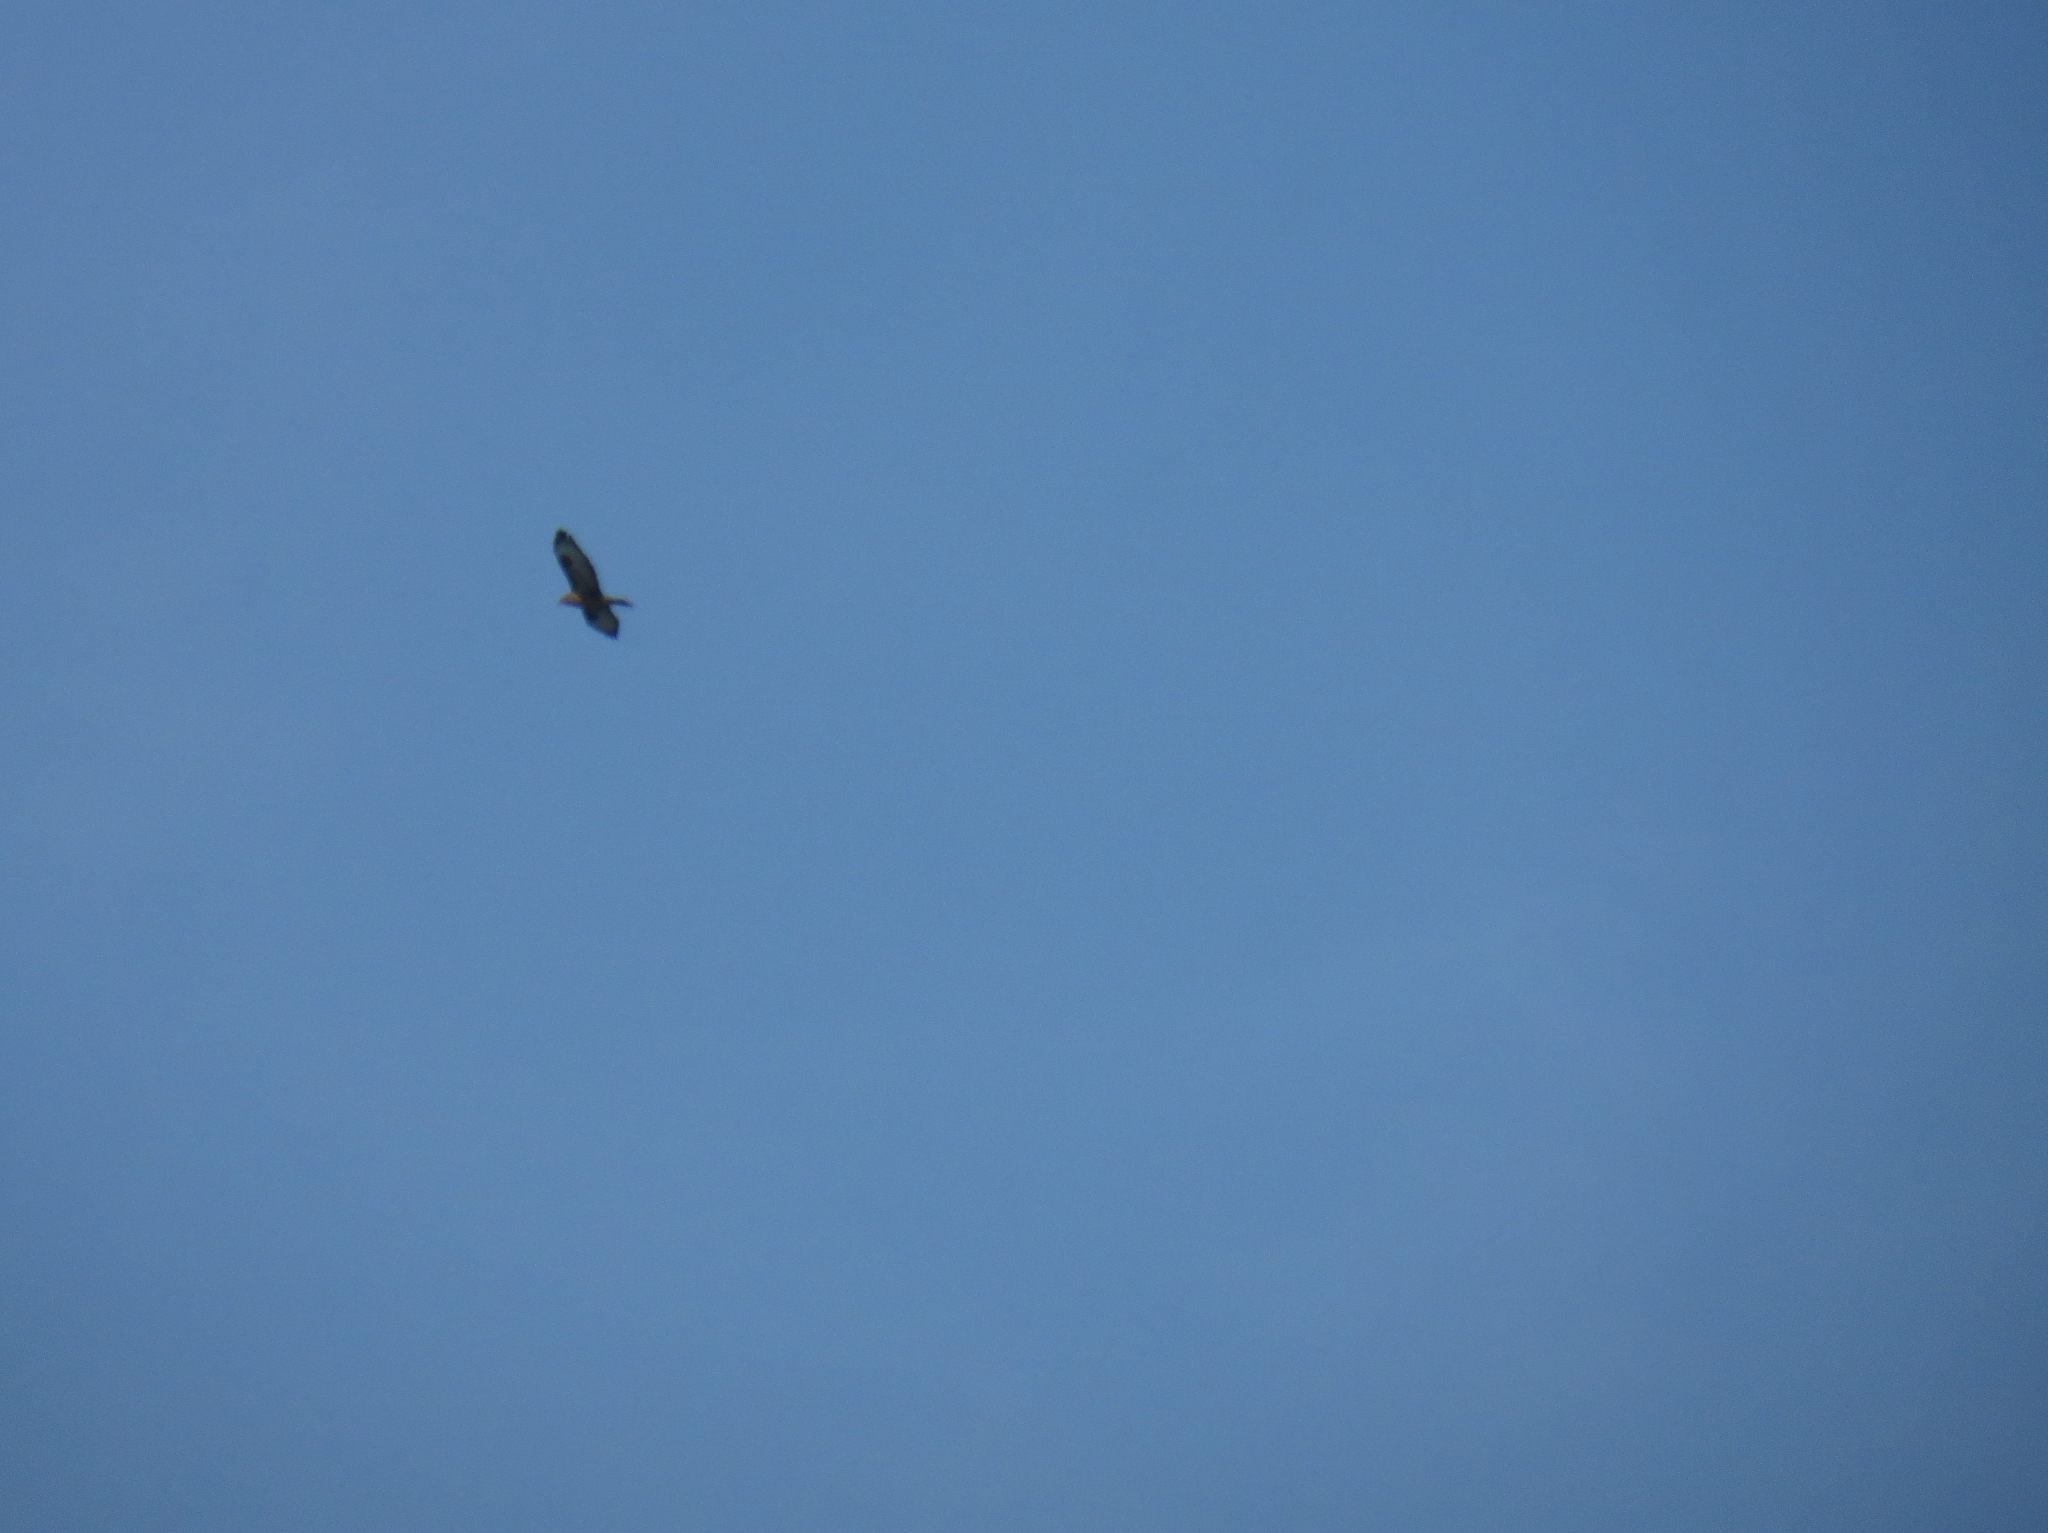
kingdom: Animalia
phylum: Chordata
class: Aves
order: Accipitriformes
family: Accipitridae
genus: Buteo
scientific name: Buteo buteo
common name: Common buzzard
